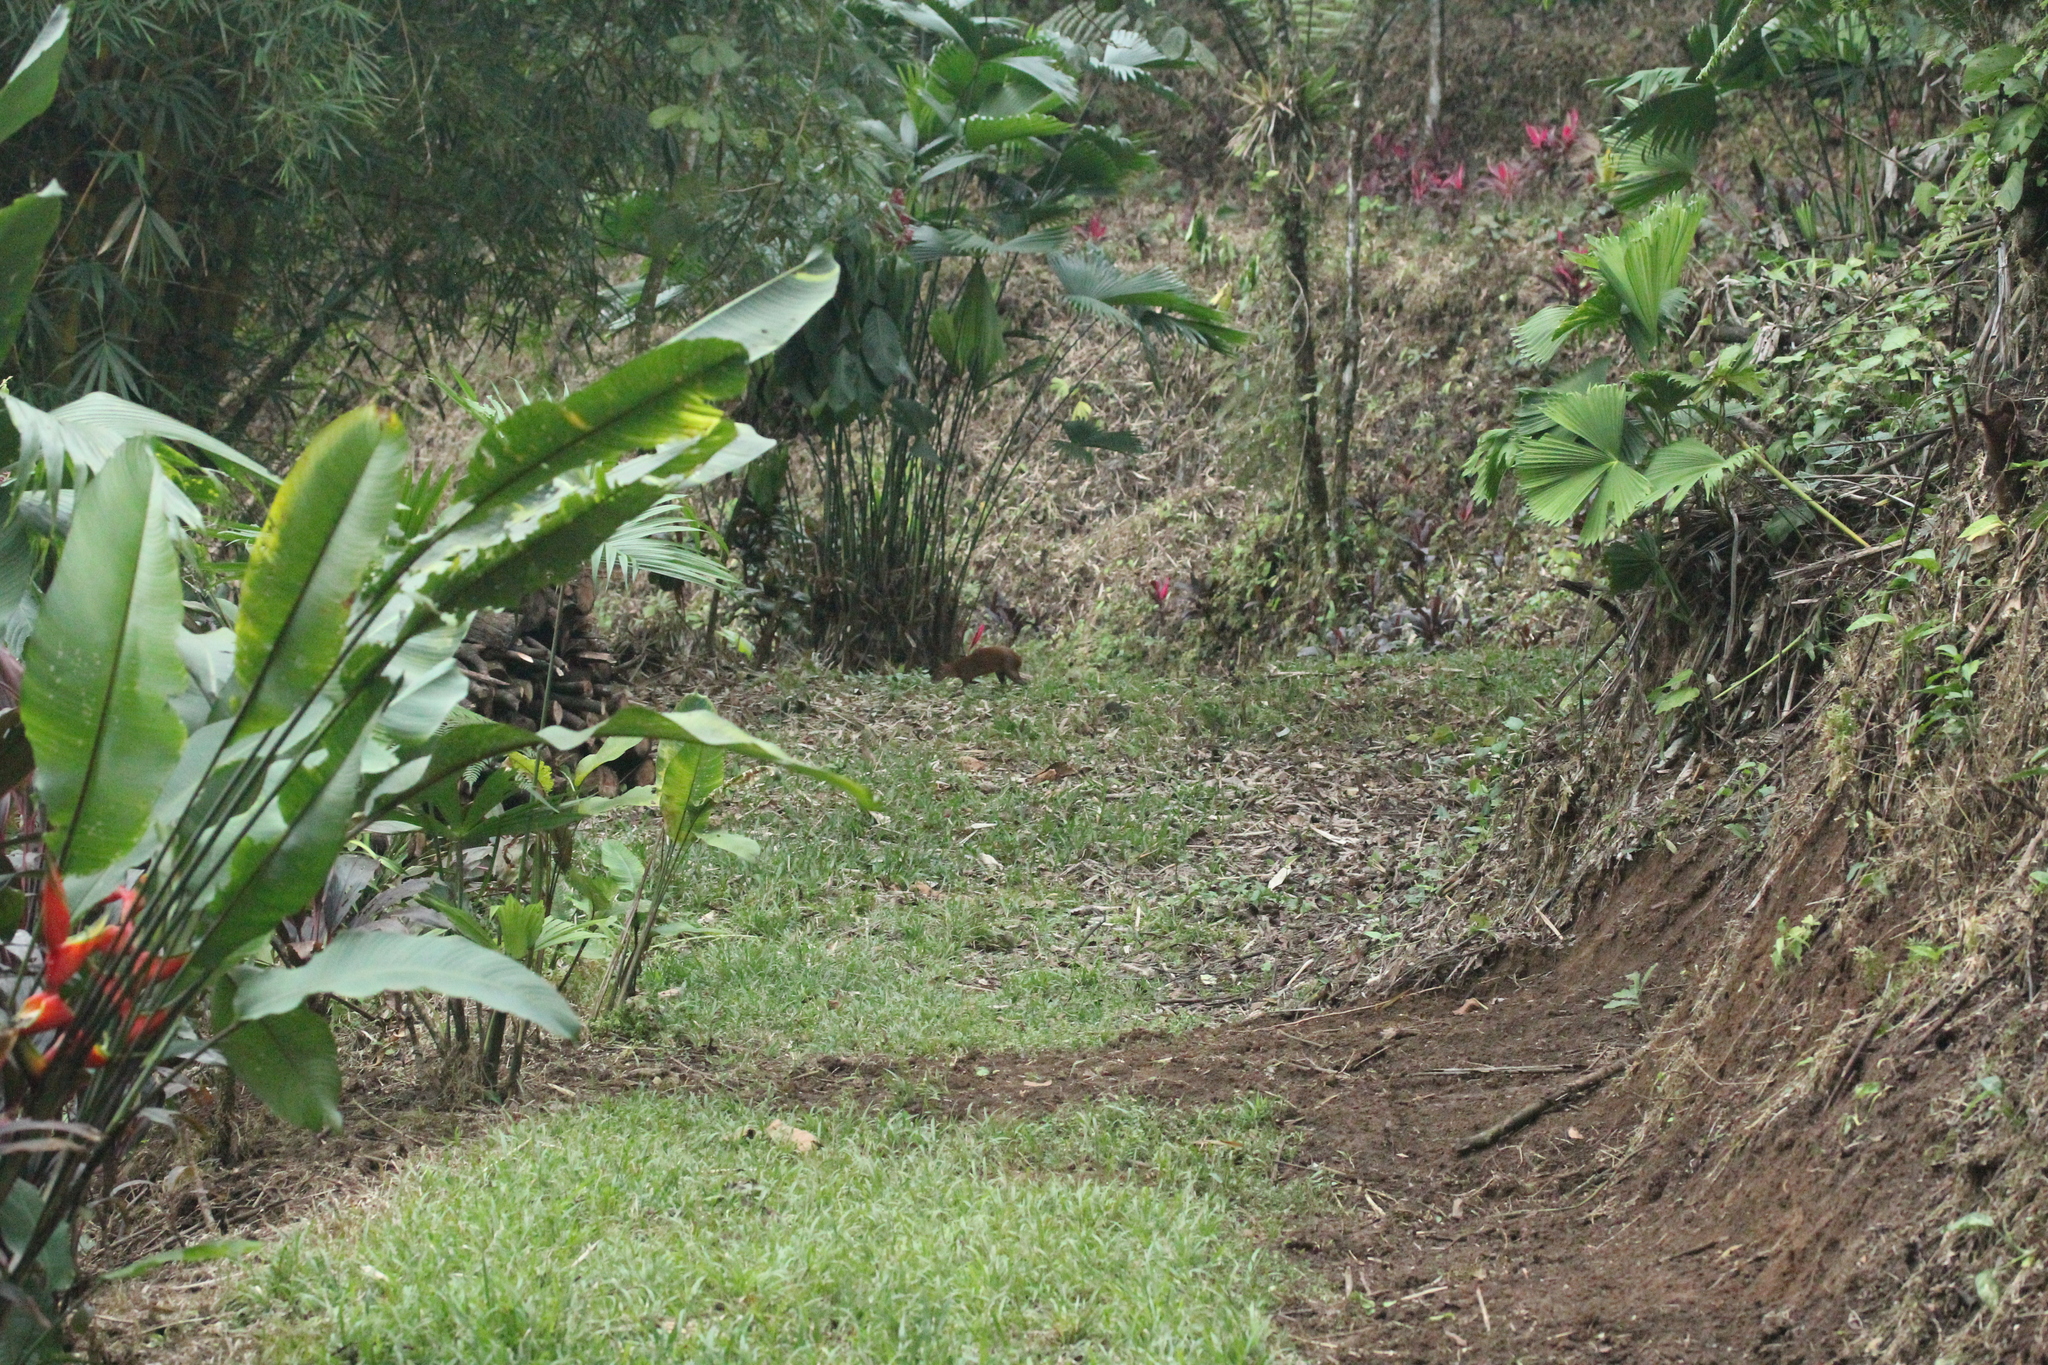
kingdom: Animalia
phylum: Chordata
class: Mammalia
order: Rodentia
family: Dasyproctidae
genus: Dasyprocta
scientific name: Dasyprocta punctata
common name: Central american agouti
